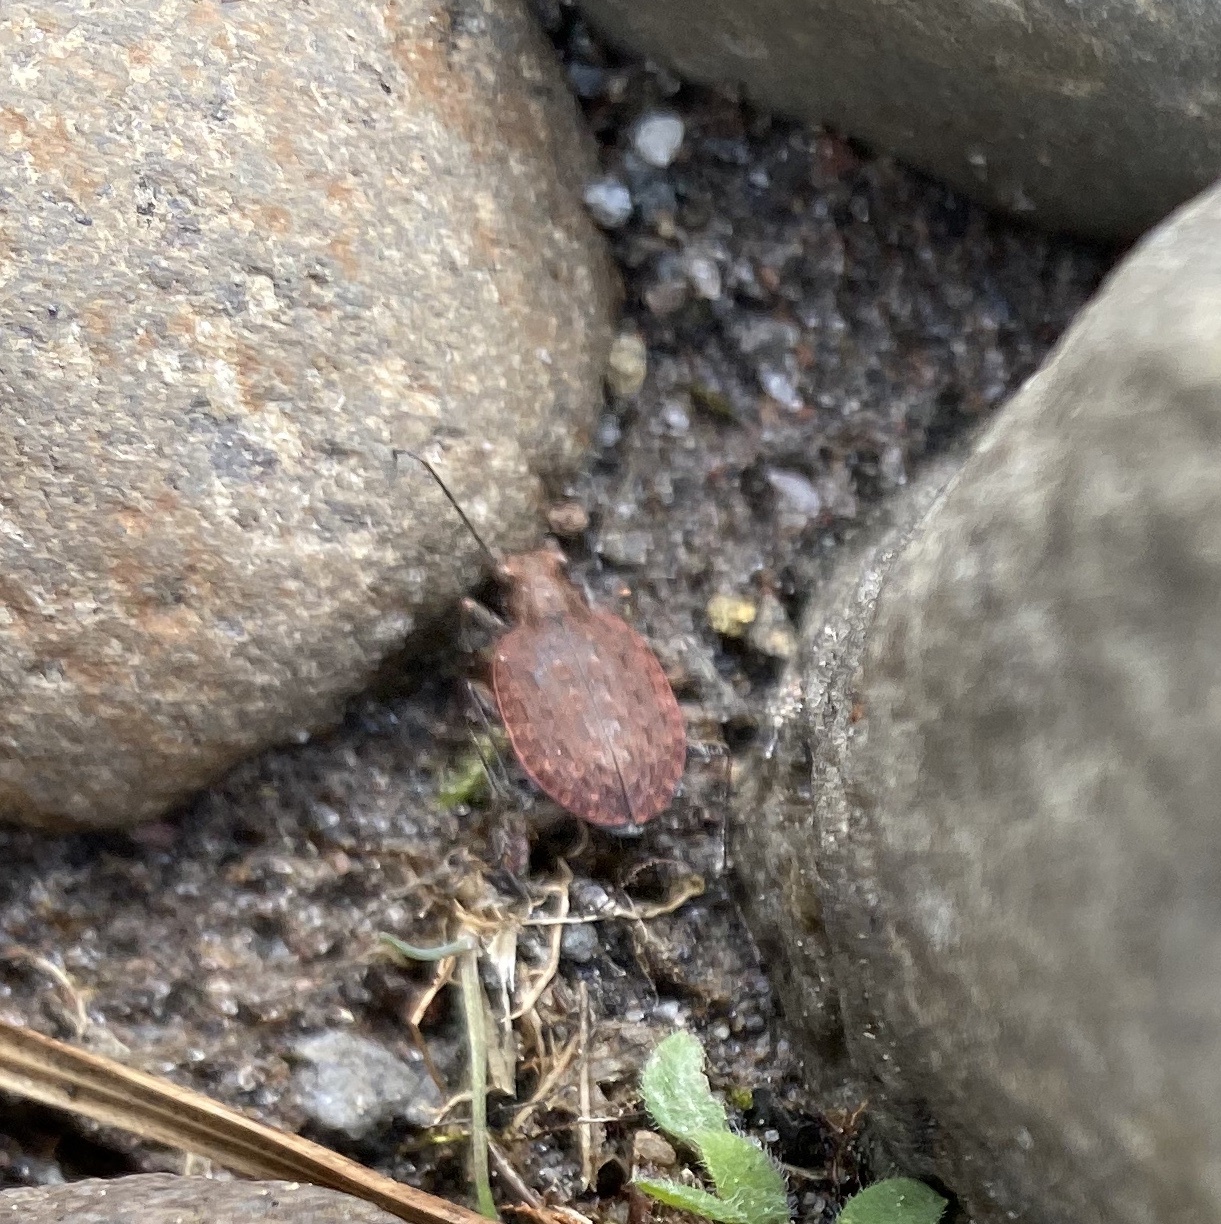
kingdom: Animalia
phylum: Arthropoda
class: Insecta
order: Coleoptera
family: Carabidae
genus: Opisthius
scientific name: Opisthius richardsoni
